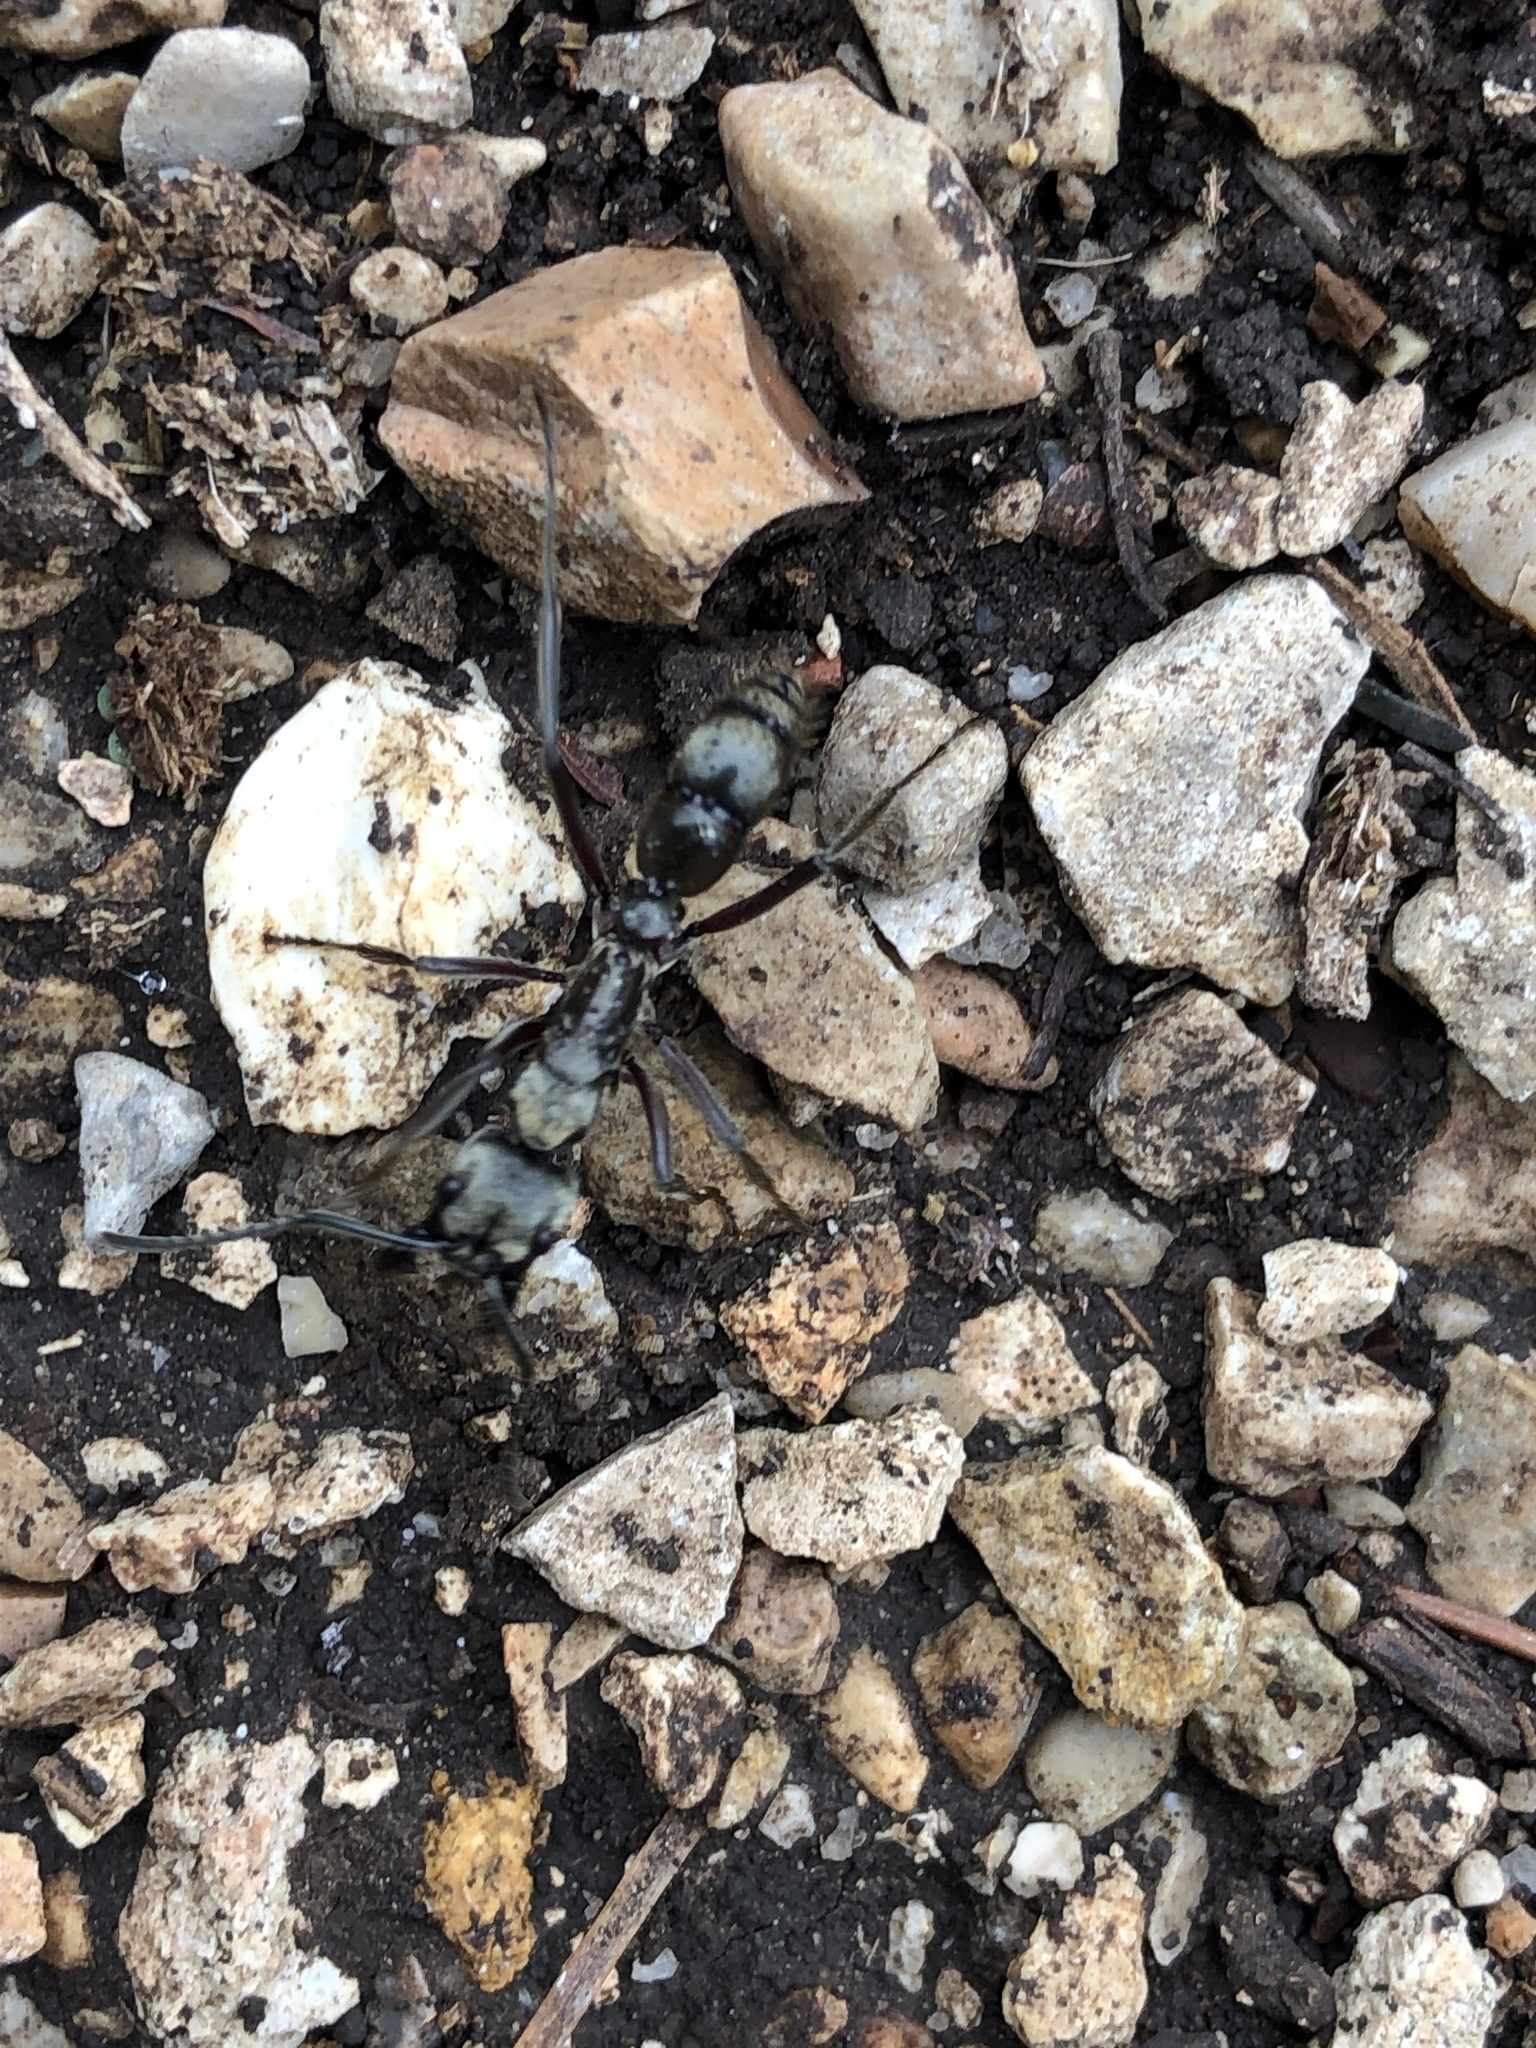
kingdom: Animalia
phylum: Arthropoda
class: Insecta
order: Hymenoptera
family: Formicidae
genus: Pachycondyla
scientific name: Pachycondyla villosa
